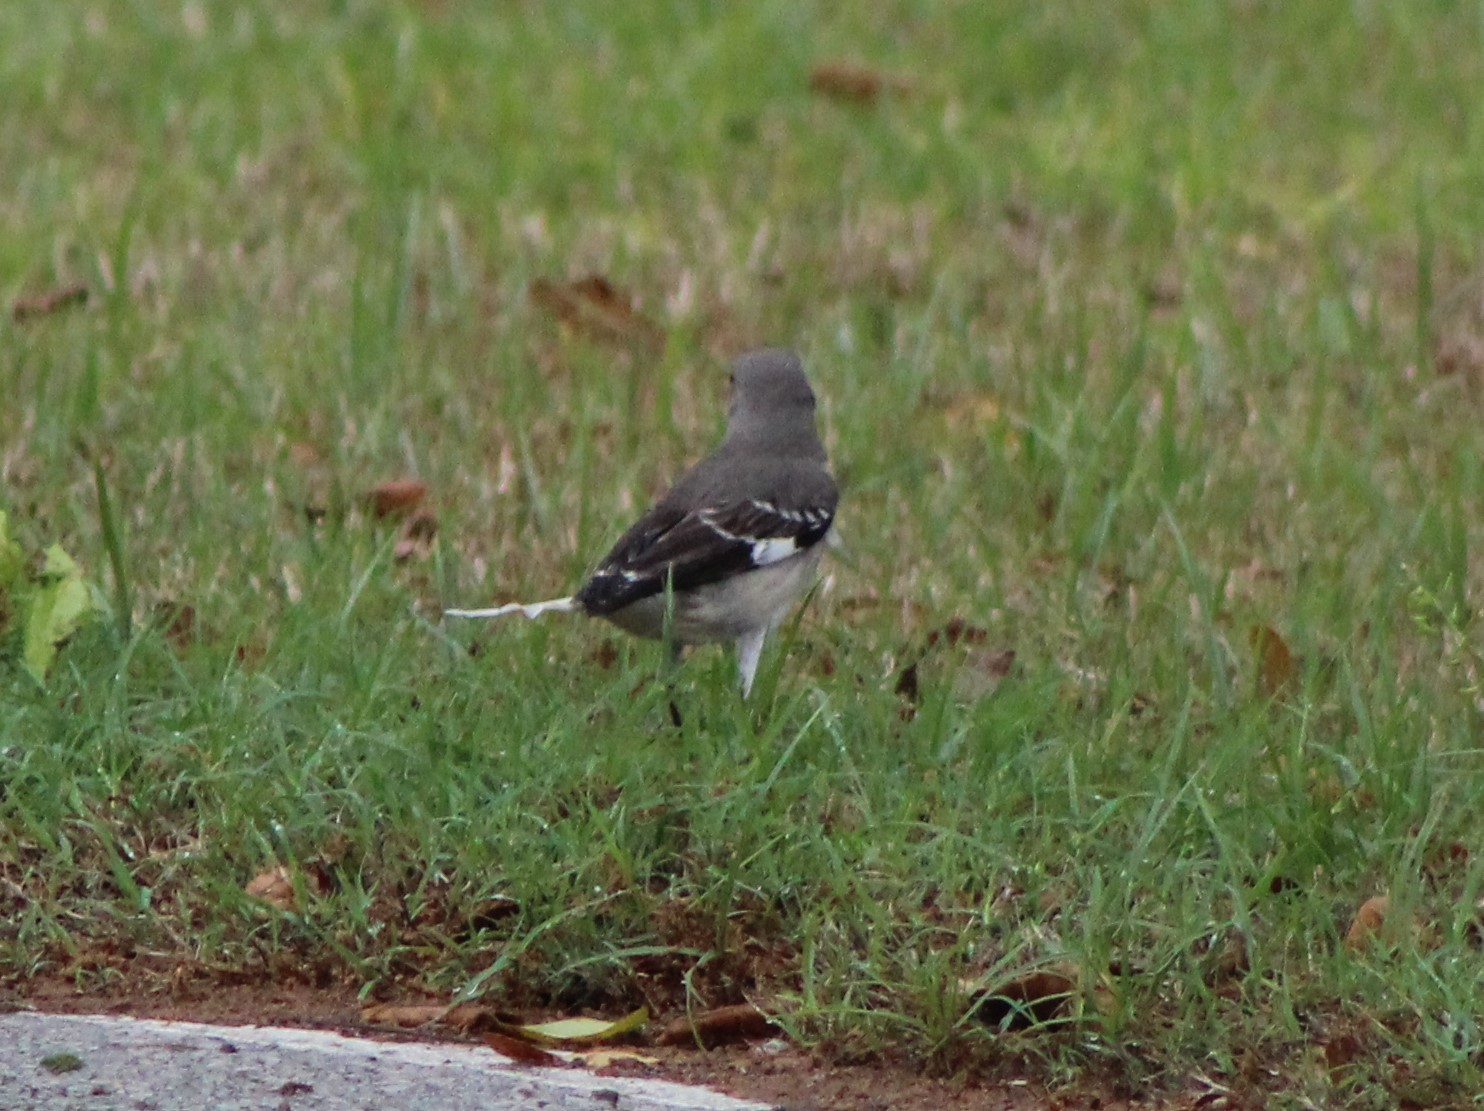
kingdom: Animalia
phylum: Chordata
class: Aves
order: Passeriformes
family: Mimidae
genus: Mimus
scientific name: Mimus polyglottos
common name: Northern mockingbird
